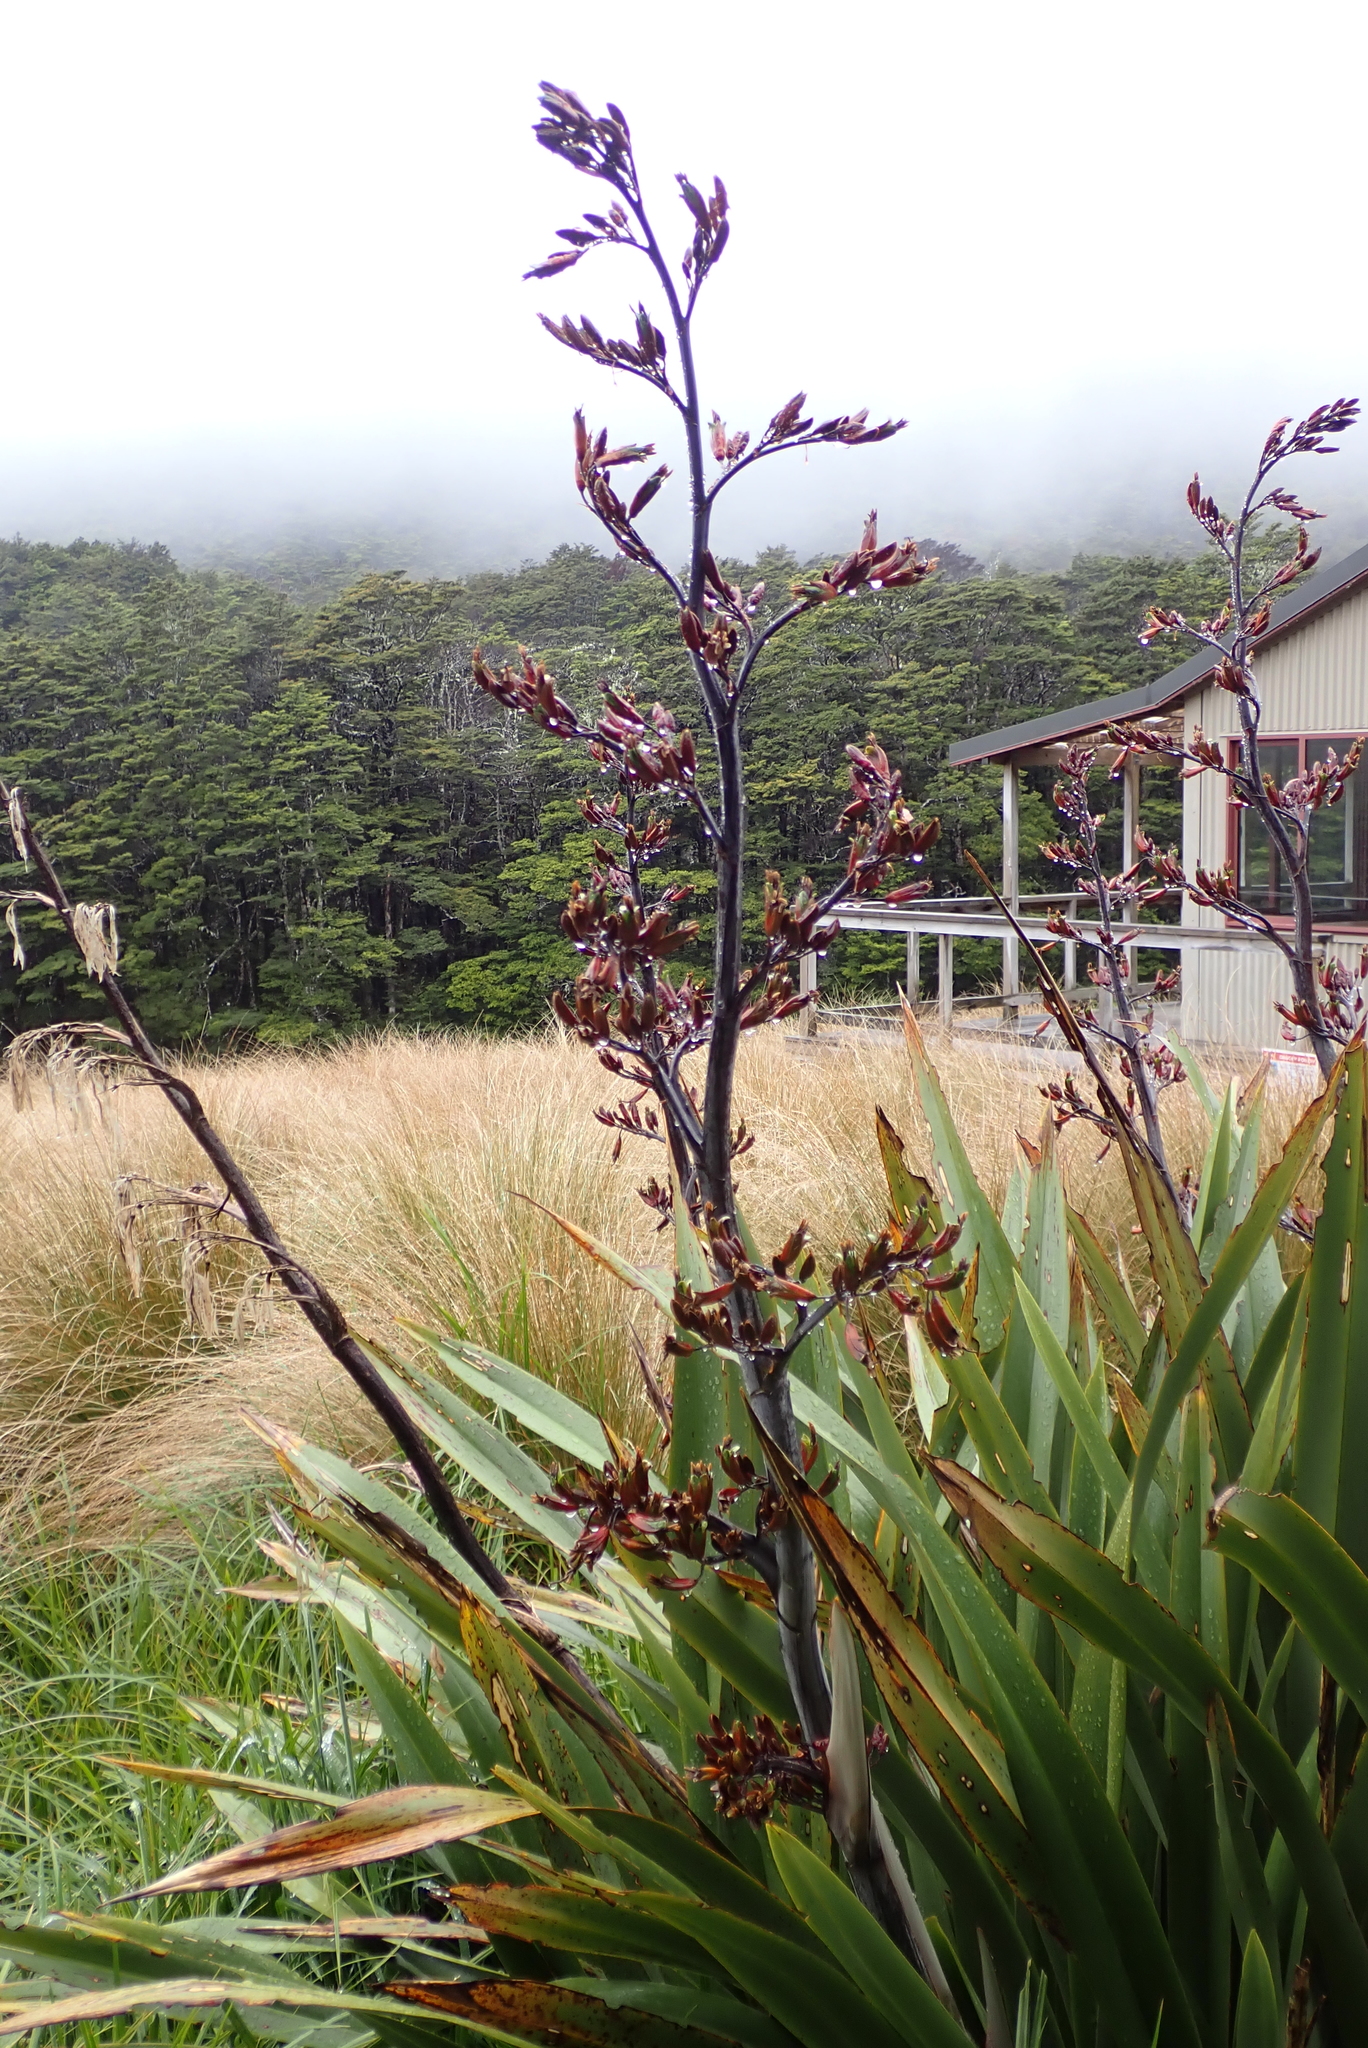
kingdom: Plantae
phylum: Tracheophyta
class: Liliopsida
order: Asparagales
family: Asphodelaceae
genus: Phormium
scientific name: Phormium tenax
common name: New zealand flax
